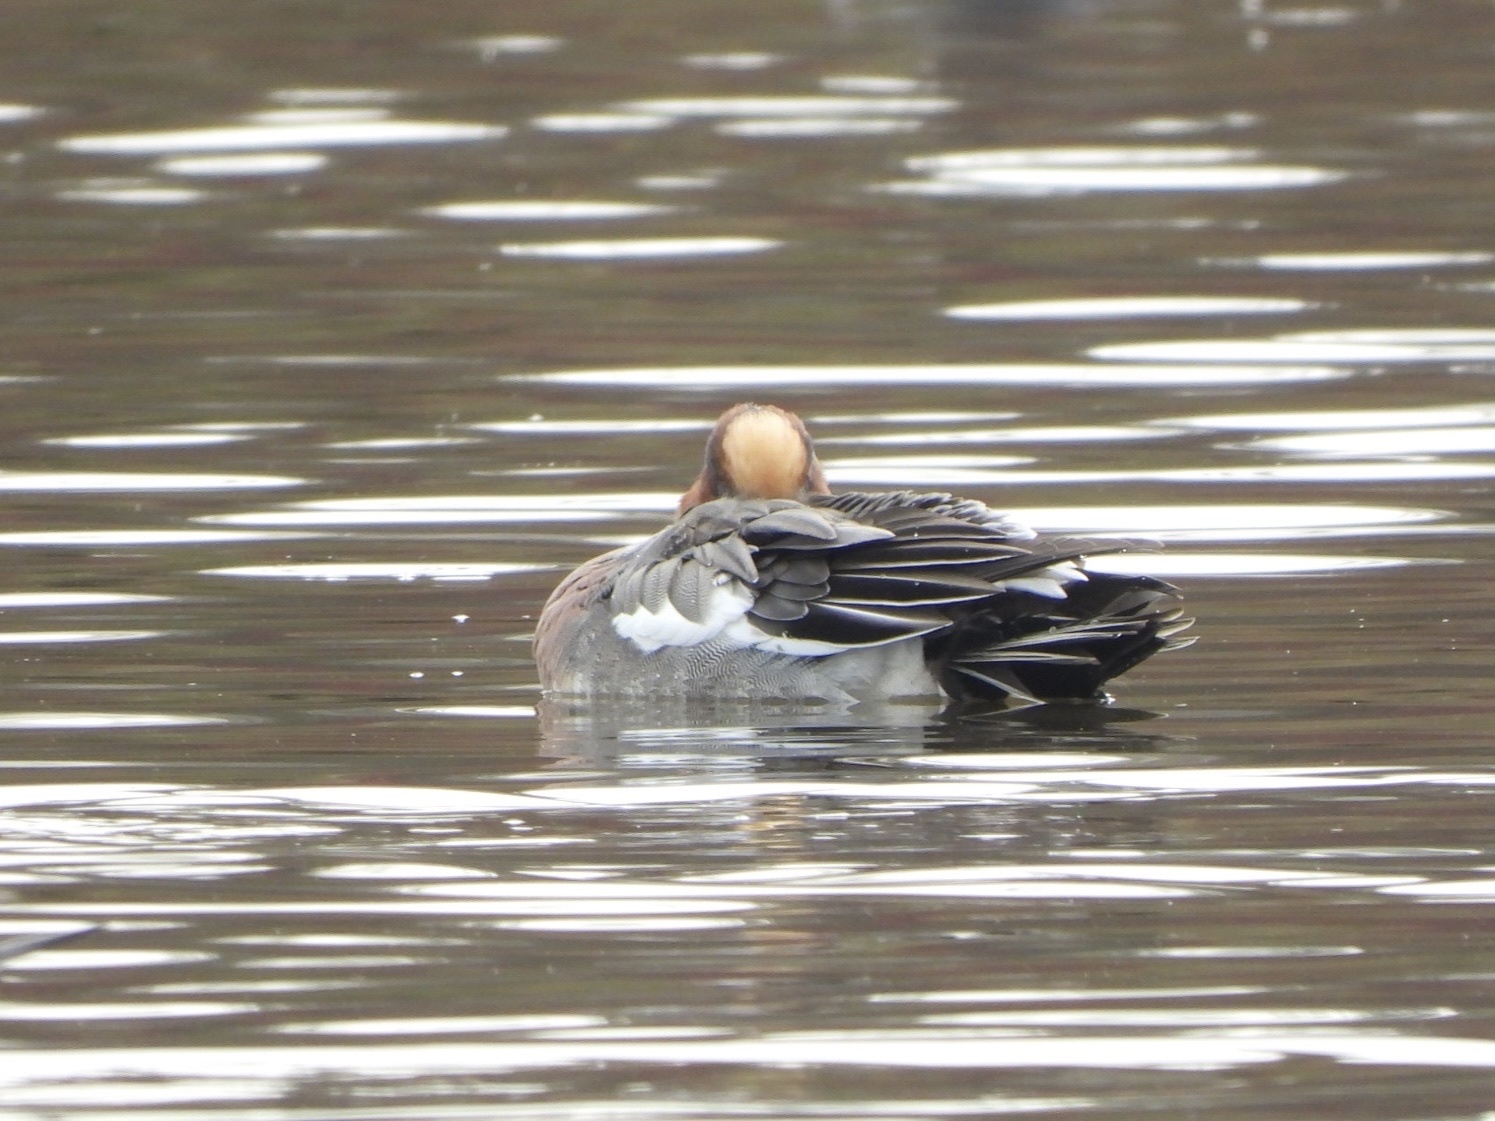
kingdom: Animalia
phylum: Chordata
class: Aves
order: Anseriformes
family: Anatidae
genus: Mareca
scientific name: Mareca penelope
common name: Eurasian wigeon
